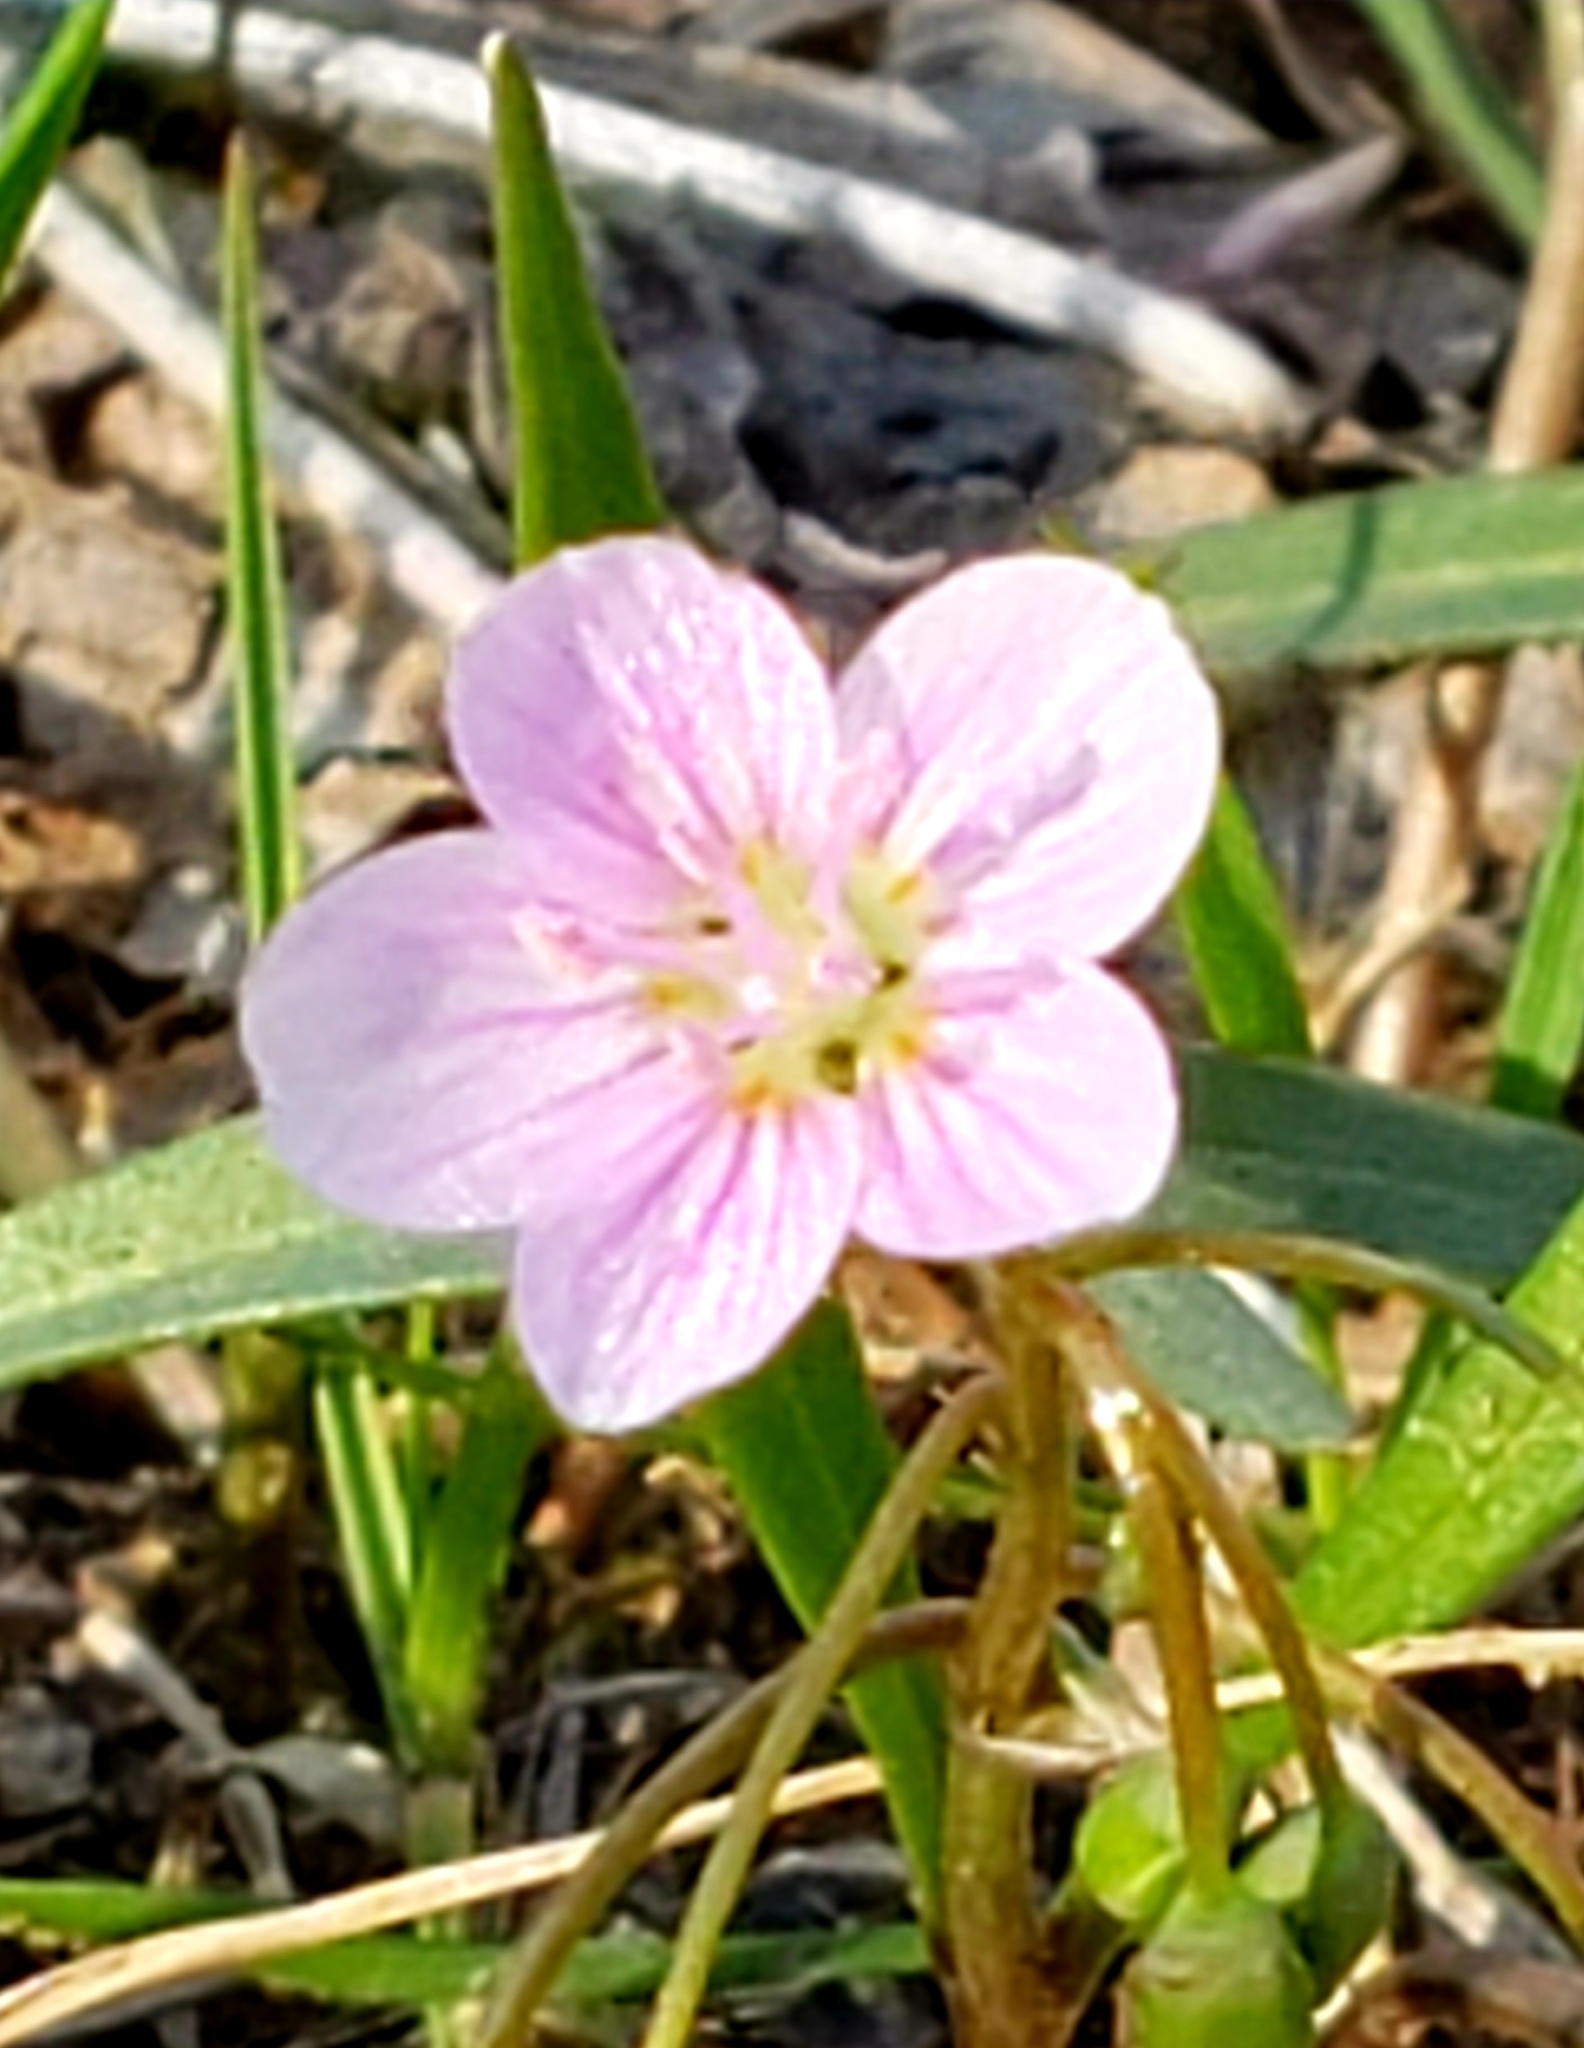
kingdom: Plantae
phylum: Tracheophyta
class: Magnoliopsida
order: Caryophyllales
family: Montiaceae
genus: Claytonia
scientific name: Claytonia virginica
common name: Virginia springbeauty
